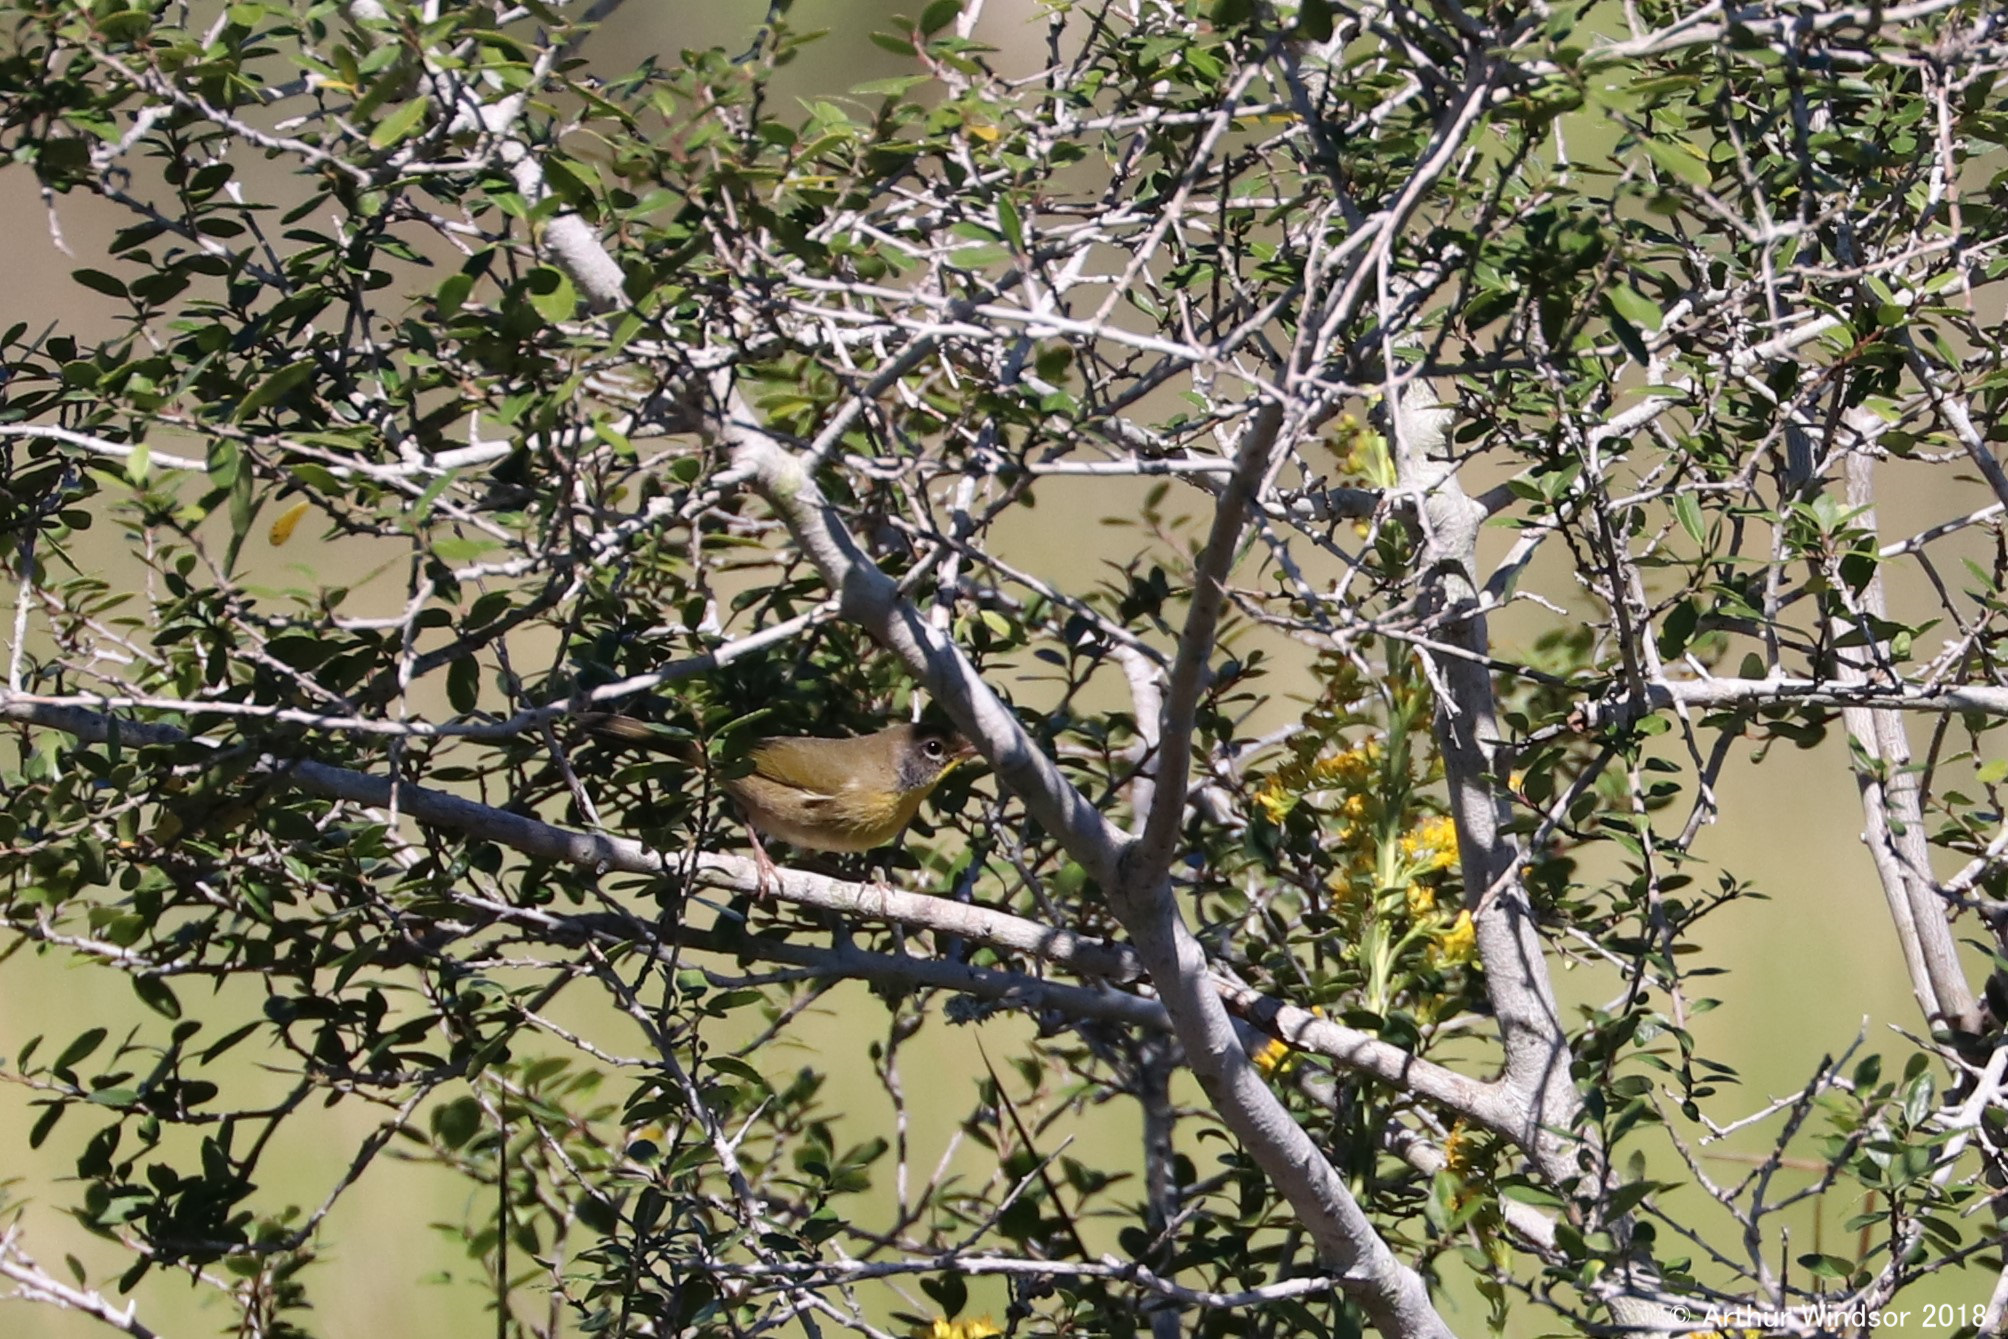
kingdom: Animalia
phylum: Chordata
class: Aves
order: Passeriformes
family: Parulidae
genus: Geothlypis
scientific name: Geothlypis trichas
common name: Common yellowthroat
